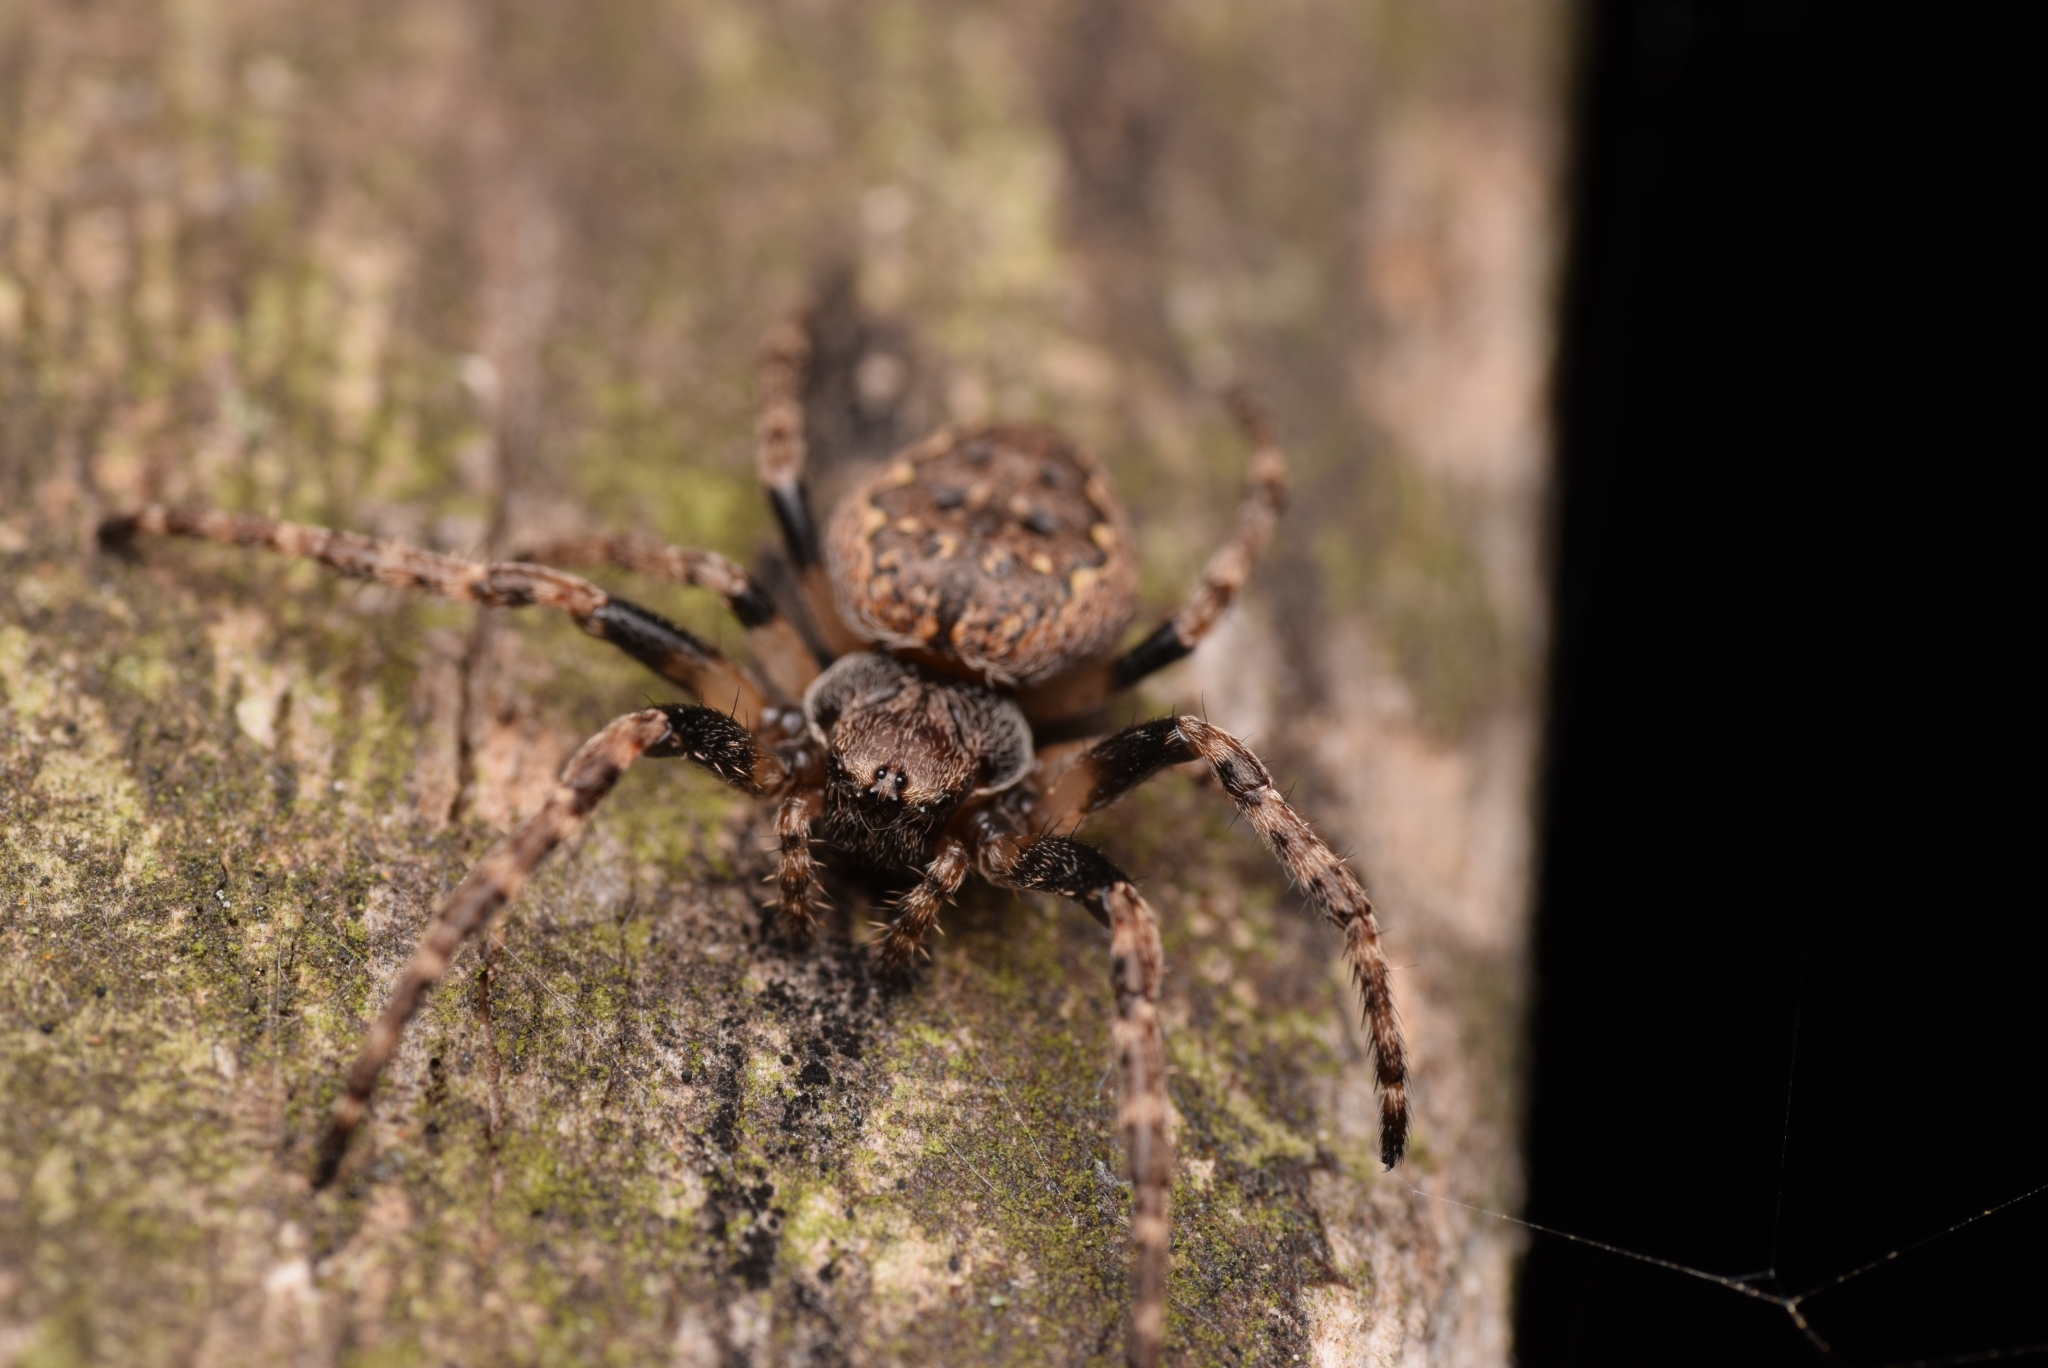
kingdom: Animalia
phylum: Arthropoda
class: Arachnida
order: Araneae
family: Araneidae
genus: Nuctenea
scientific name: Nuctenea umbratica
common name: Toad spider
